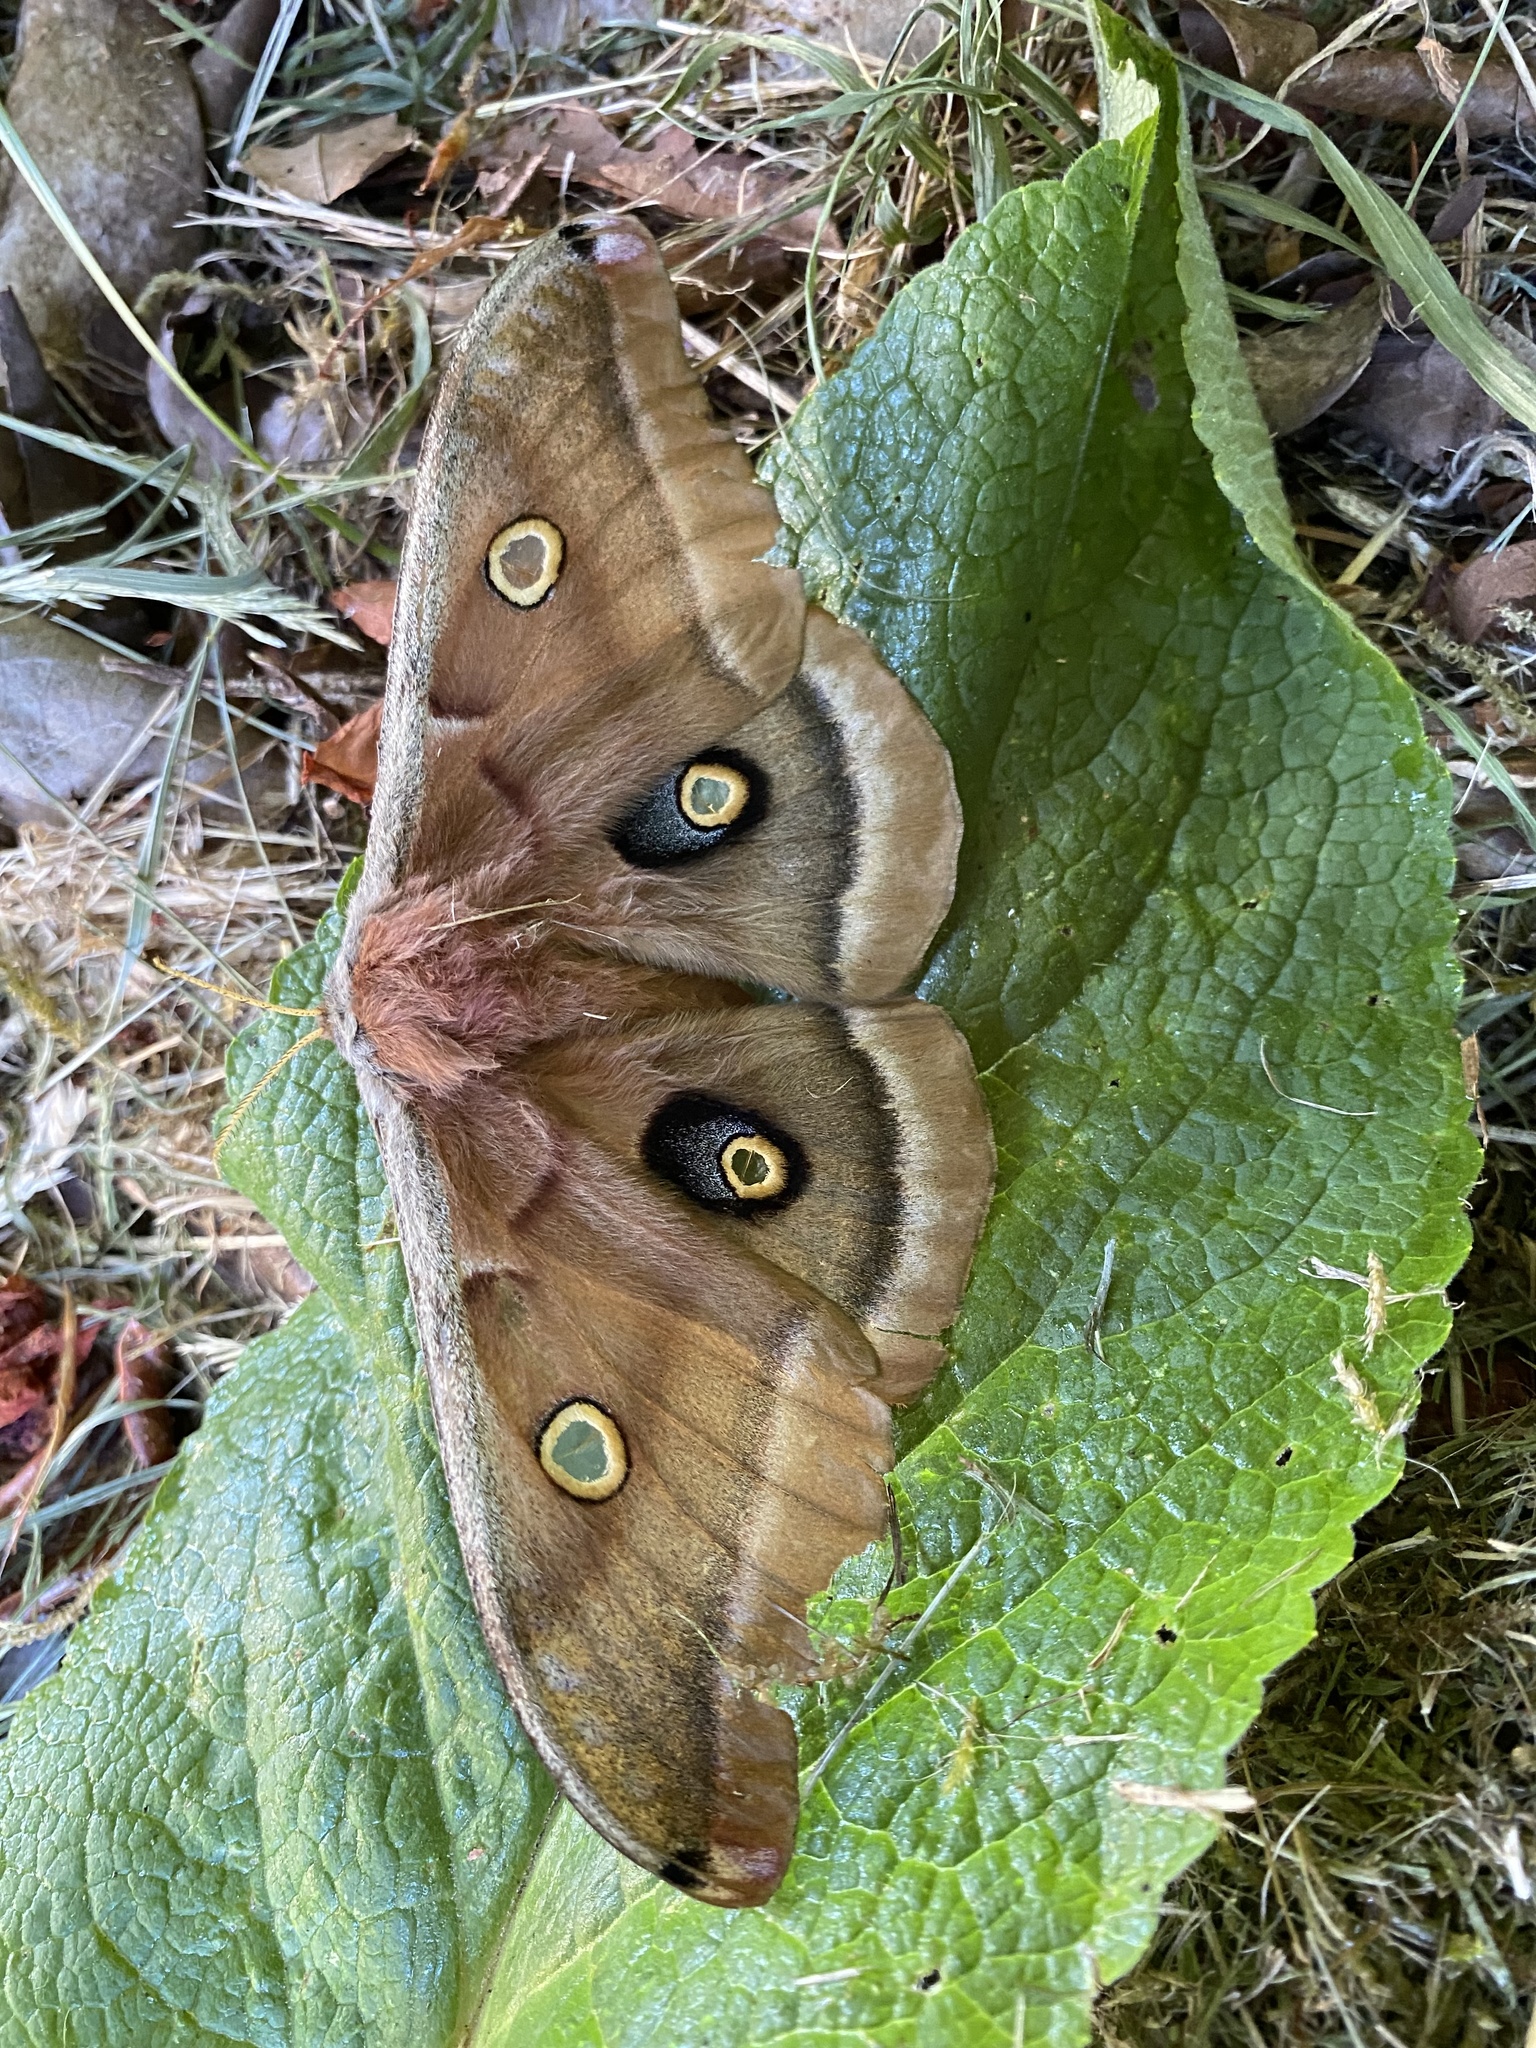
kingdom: Animalia
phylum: Arthropoda
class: Insecta
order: Lepidoptera
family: Saturniidae
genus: Antheraea
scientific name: Antheraea polyphemus
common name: Polyphemus moth
